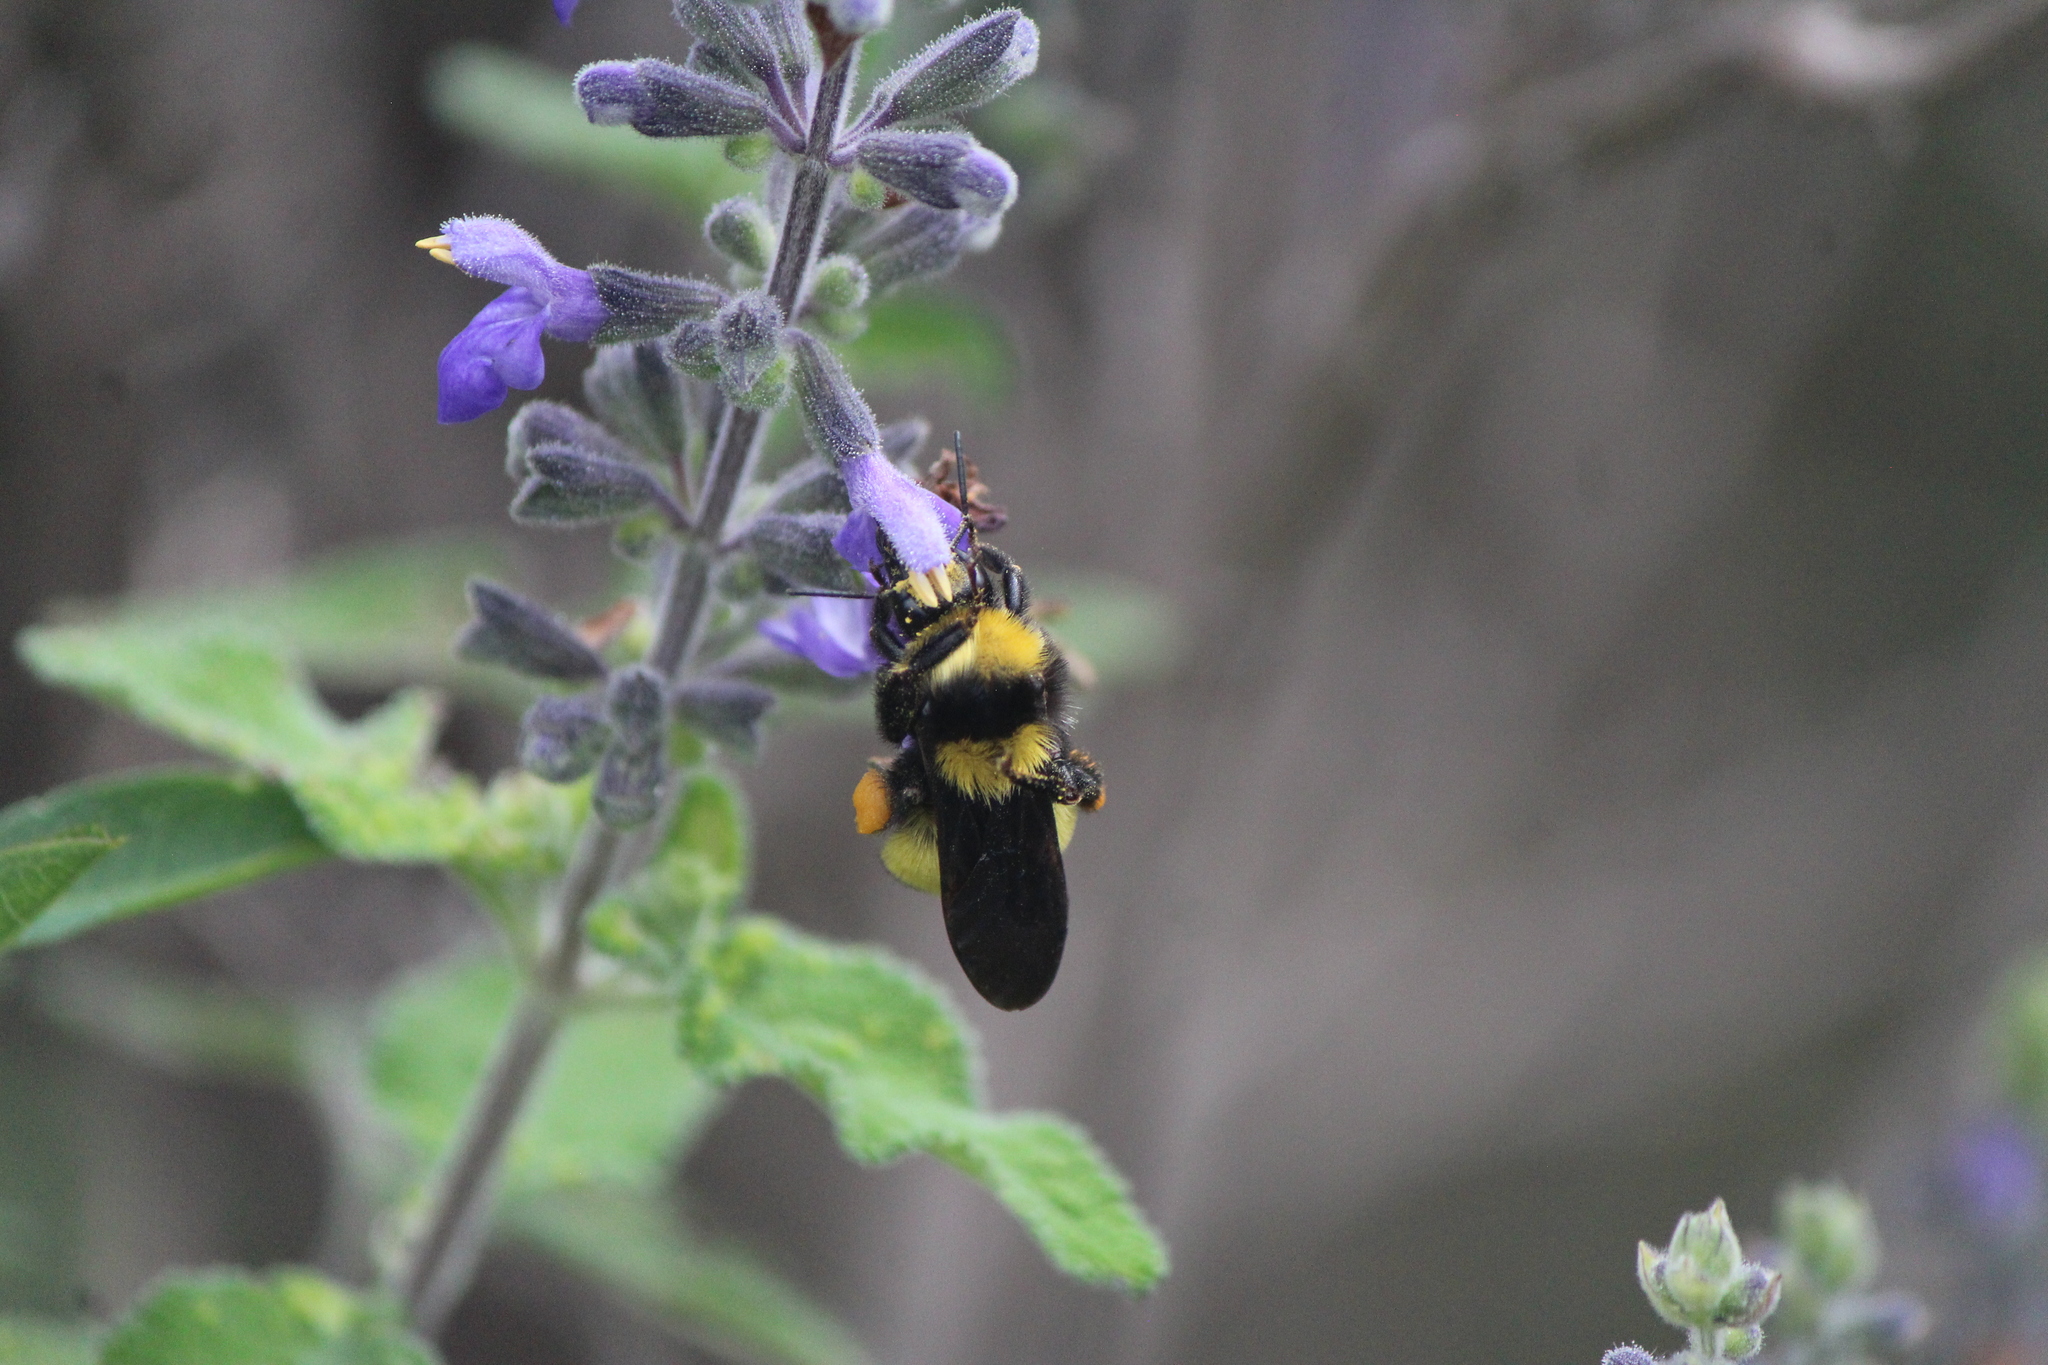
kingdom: Animalia
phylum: Arthropoda
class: Insecta
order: Hymenoptera
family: Apidae
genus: Bombus
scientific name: Bombus sonorus
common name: Sonoran bumble bee
